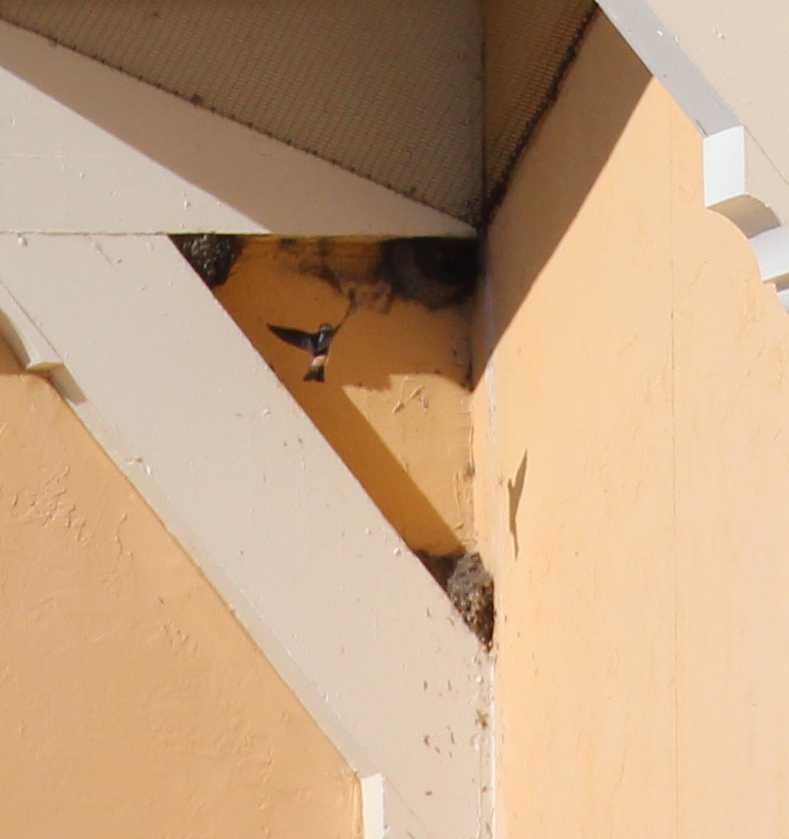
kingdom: Animalia
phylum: Chordata
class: Aves
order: Passeriformes
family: Hirundinidae
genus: Petrochelidon
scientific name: Petrochelidon pyrrhonota
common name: American cliff swallow
